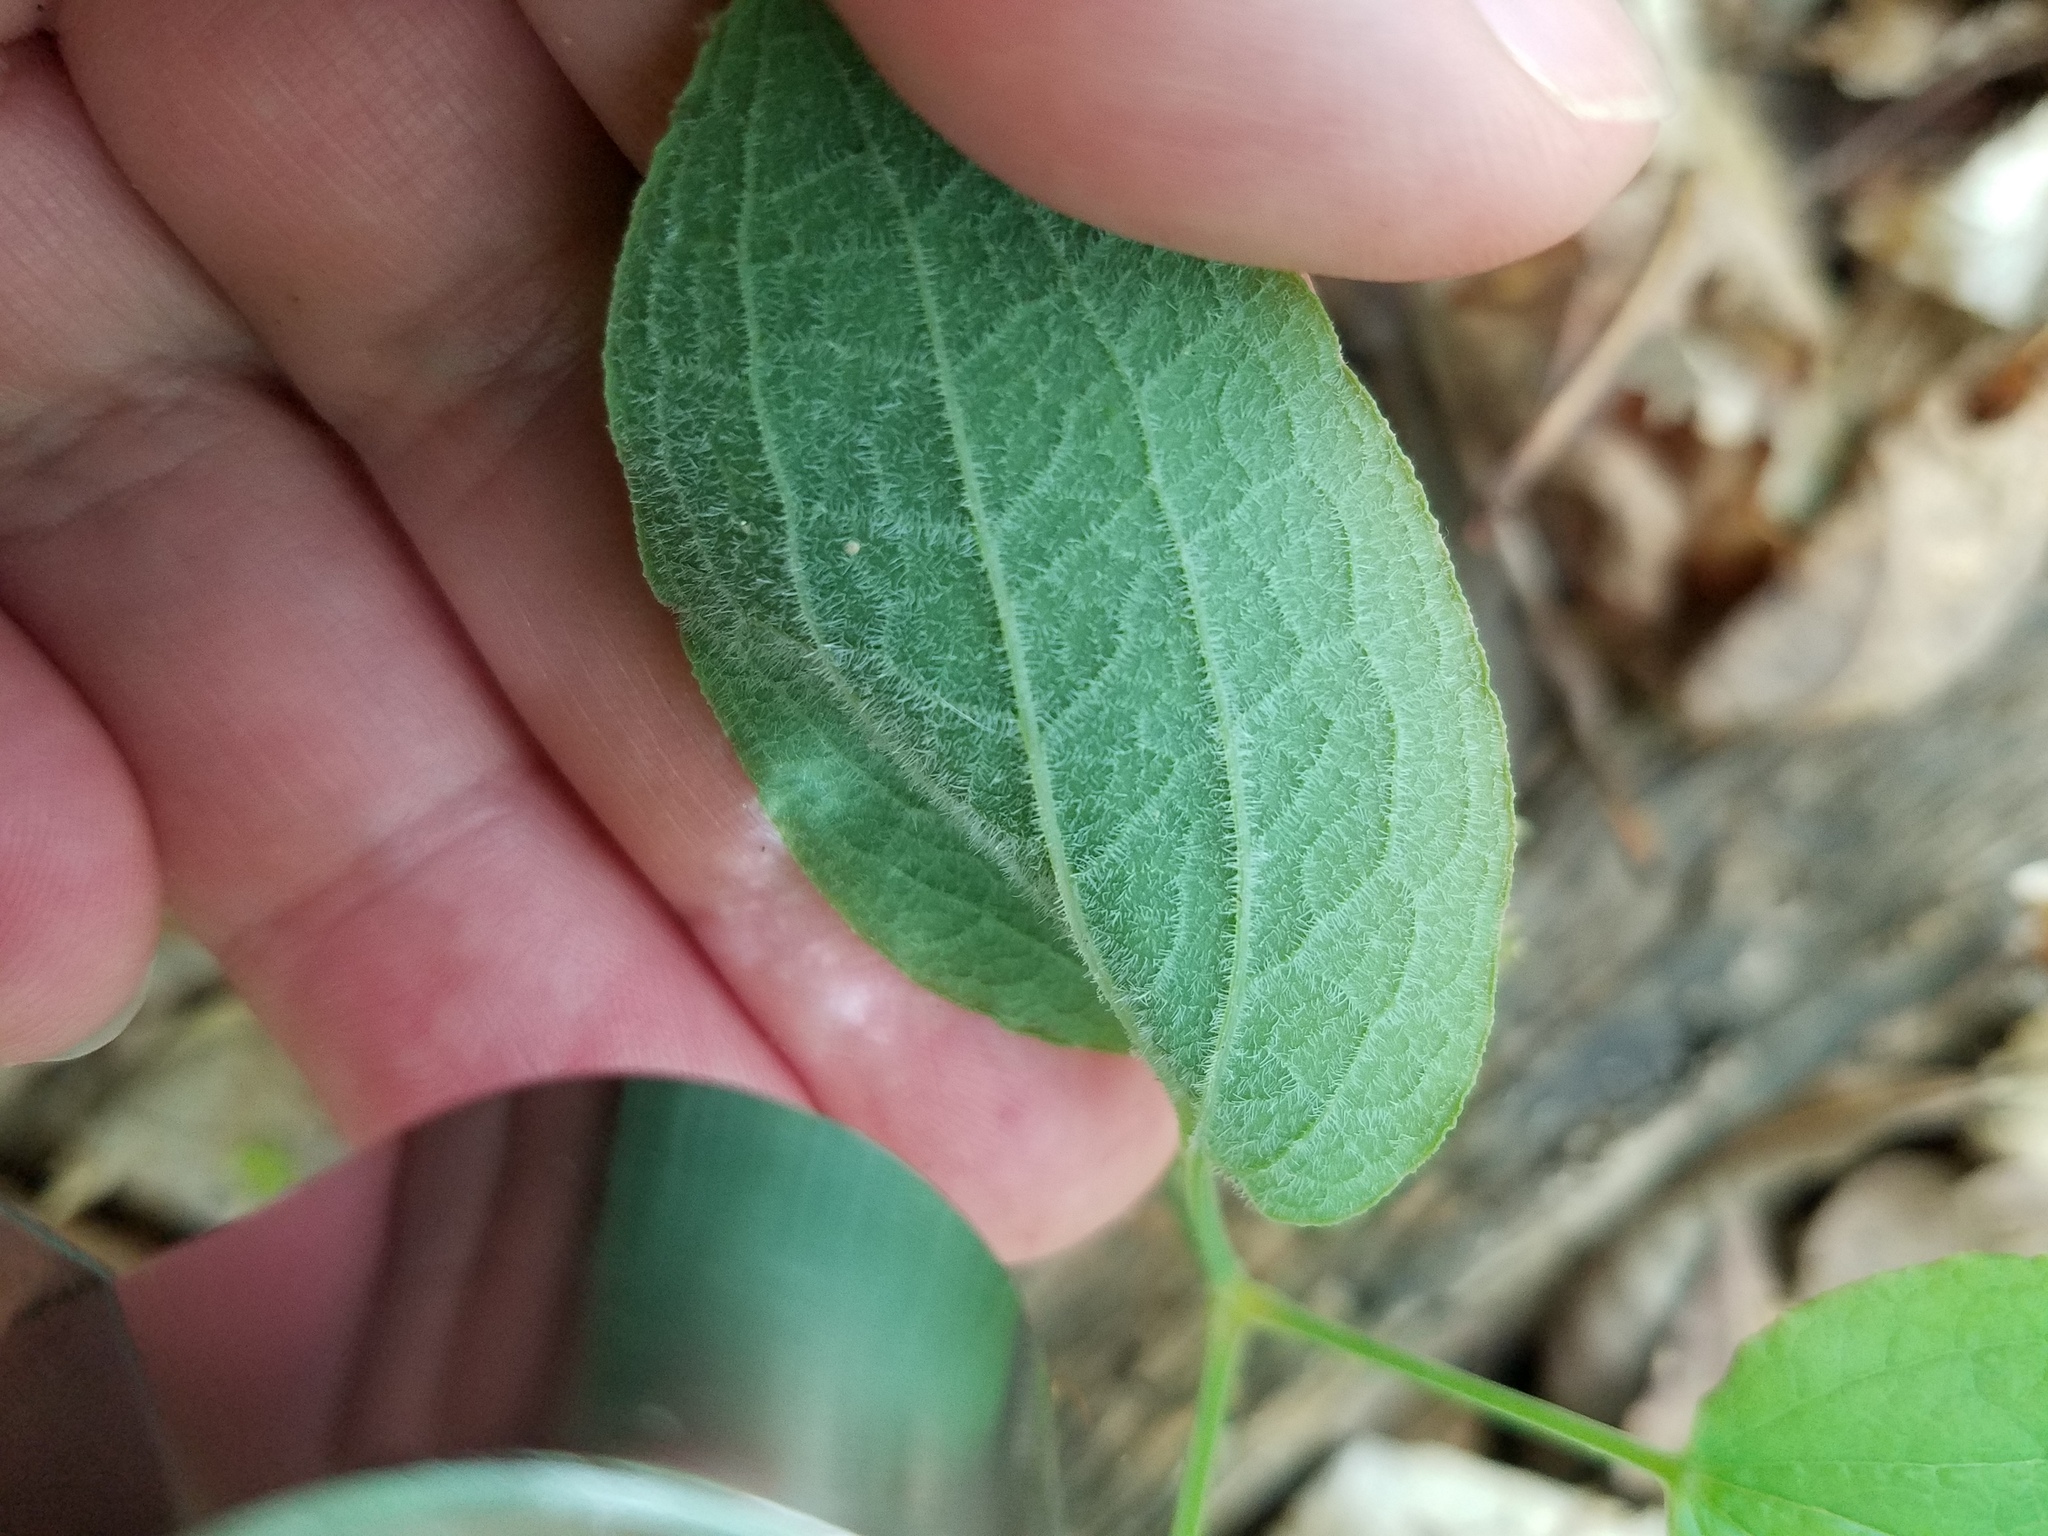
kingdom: Plantae
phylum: Tracheophyta
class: Liliopsida
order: Liliales
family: Smilacaceae
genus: Smilax
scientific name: Smilax hugeri
